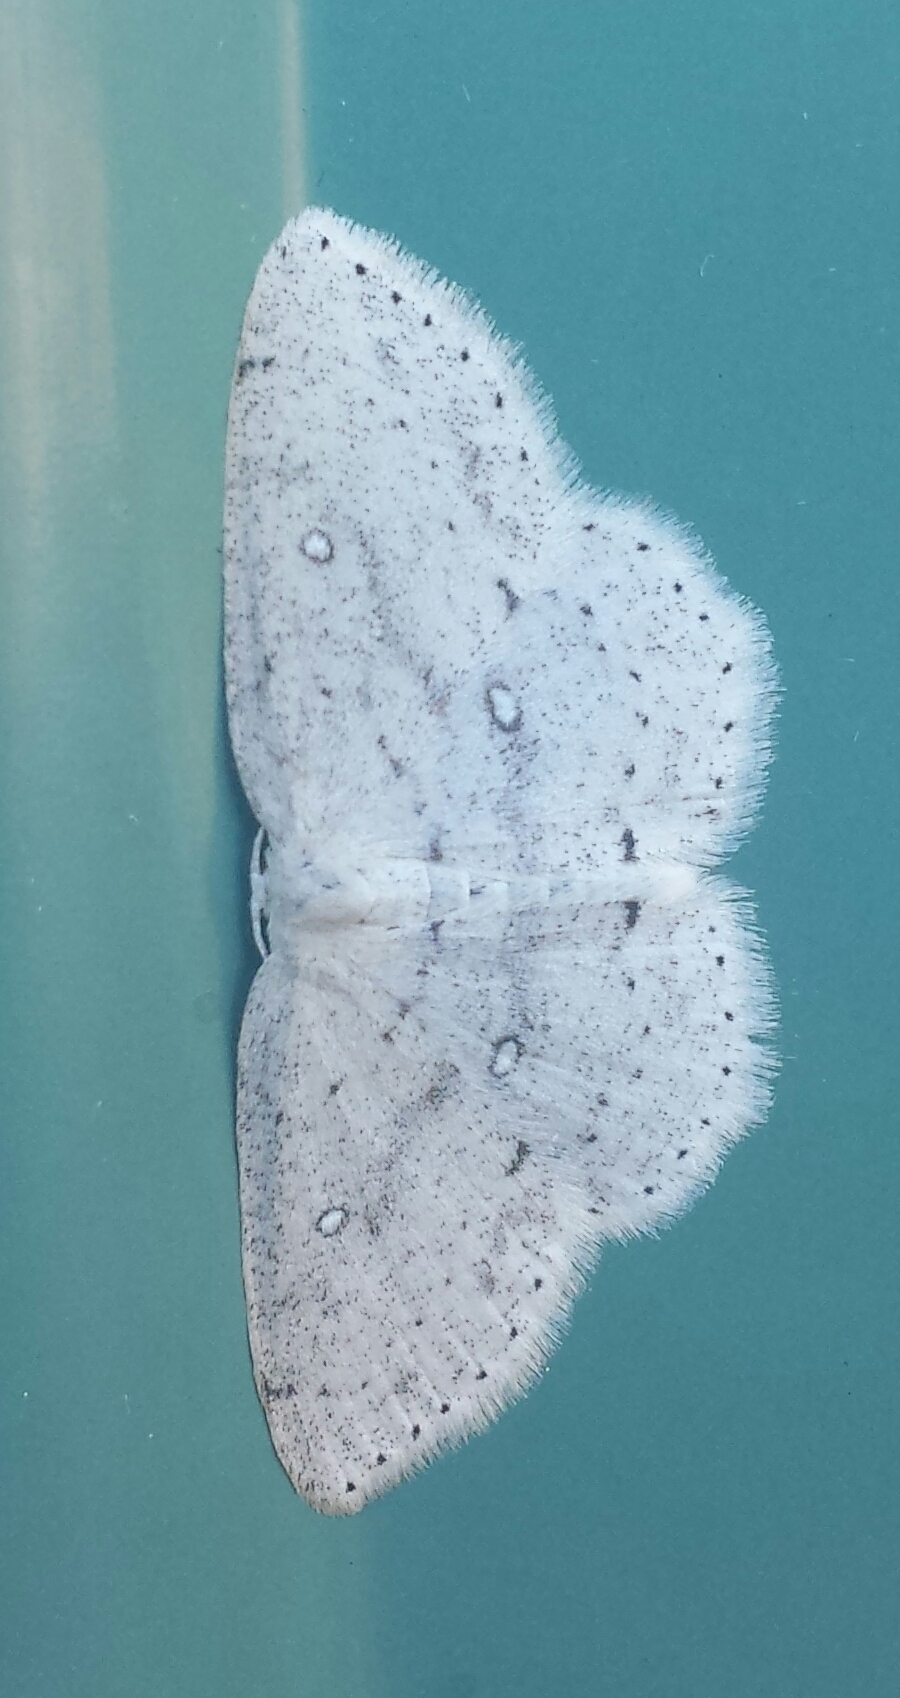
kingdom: Animalia
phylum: Arthropoda
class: Insecta
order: Lepidoptera
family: Geometridae
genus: Cyclophora
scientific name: Cyclophora pendulinaria
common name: Sweet fern geometer
